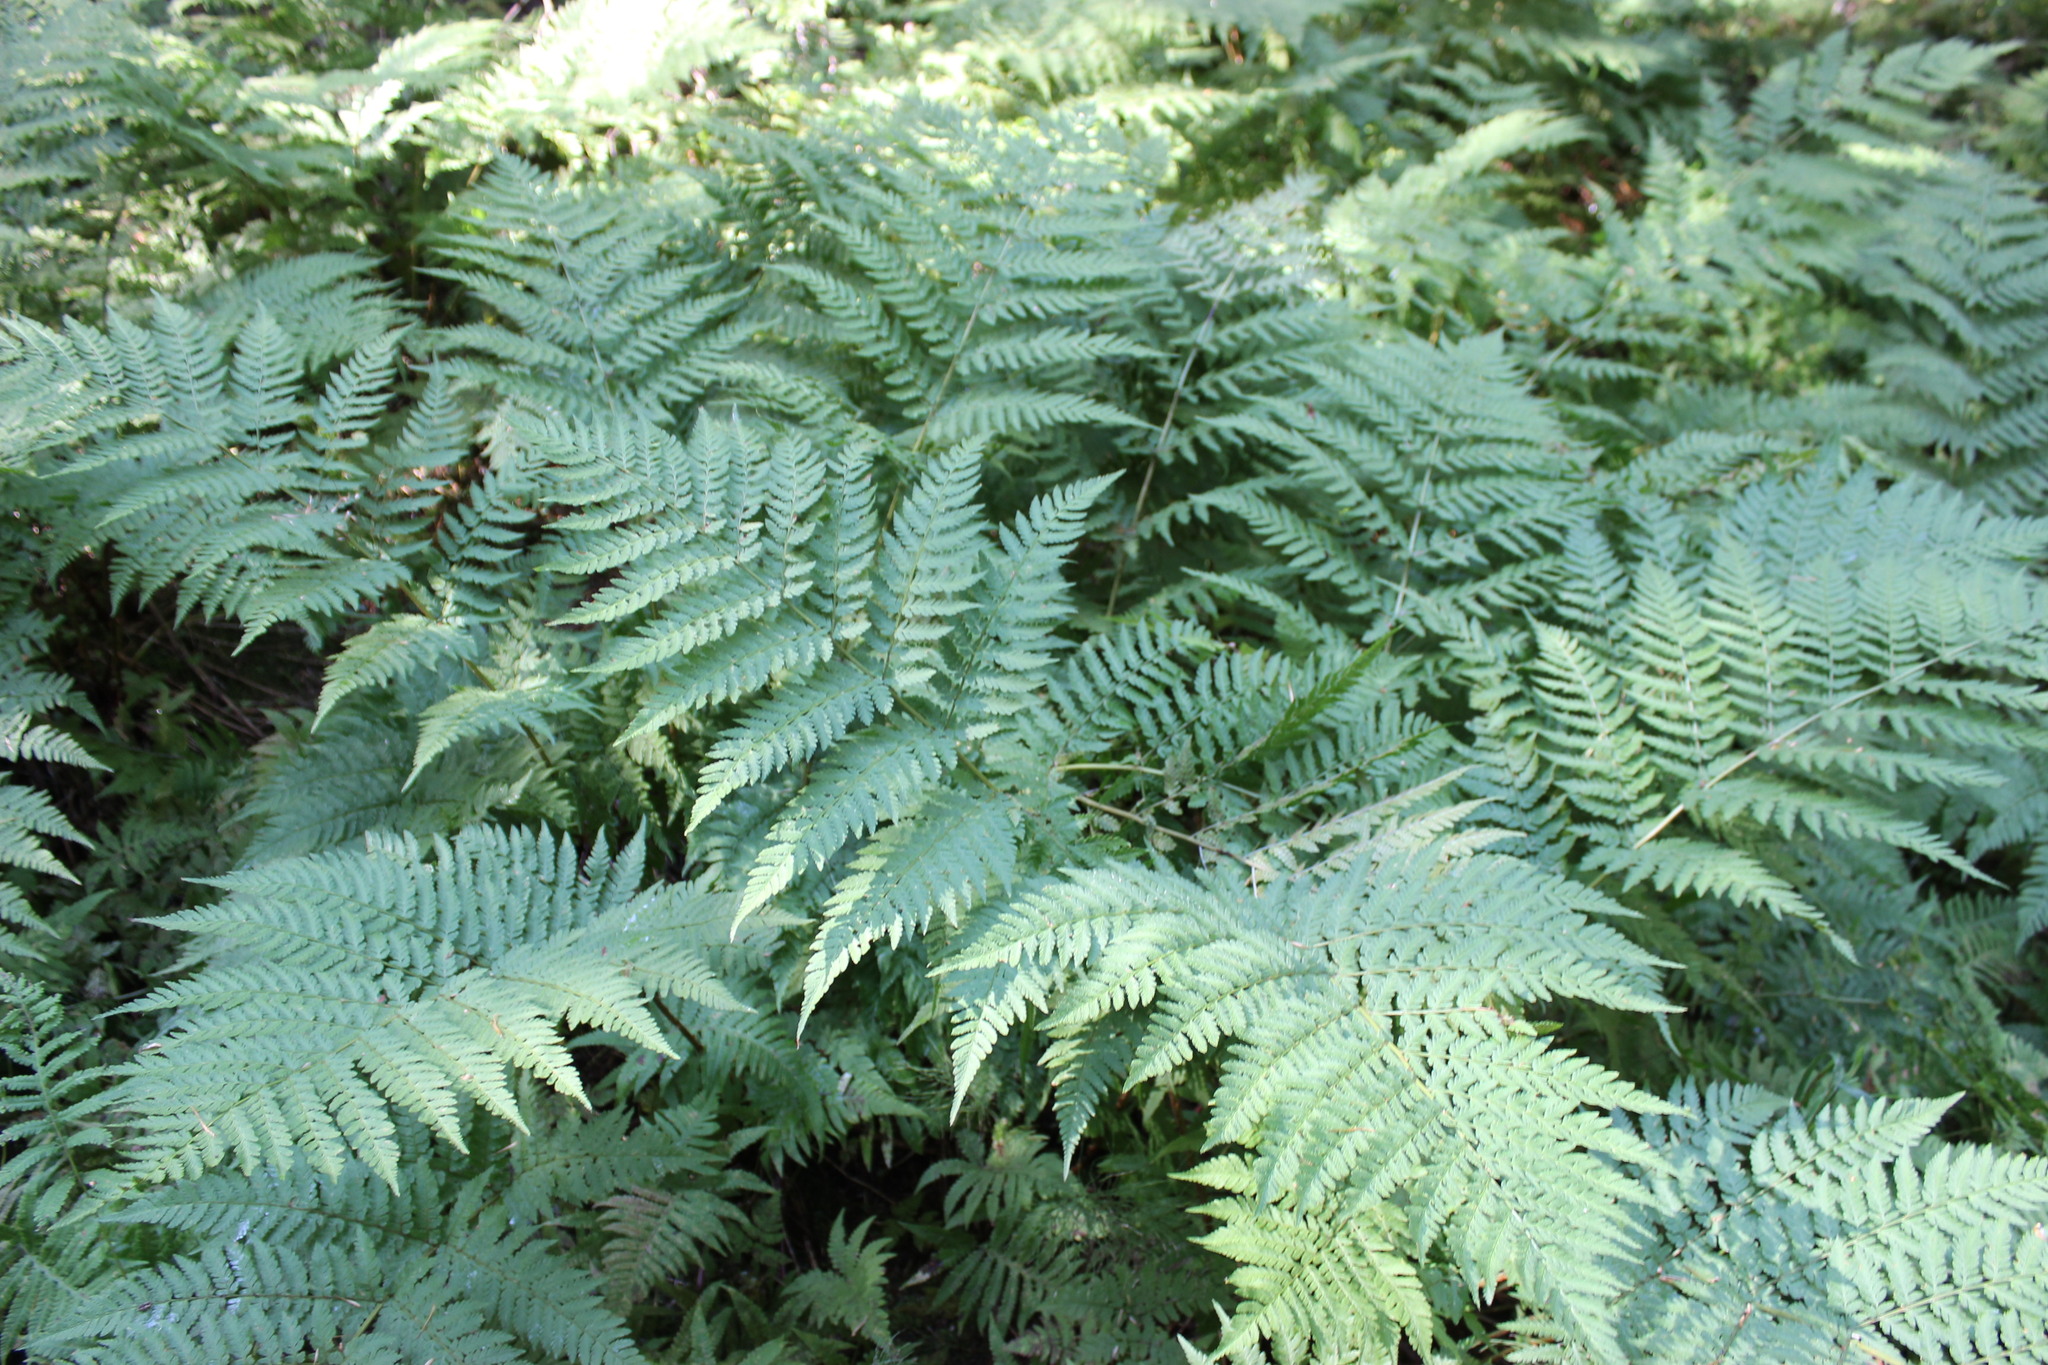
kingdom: Plantae
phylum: Tracheophyta
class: Polypodiopsida
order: Polypodiales
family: Dryopteridaceae
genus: Dryopteris
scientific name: Dryopteris expansa
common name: Northern buckler fern
